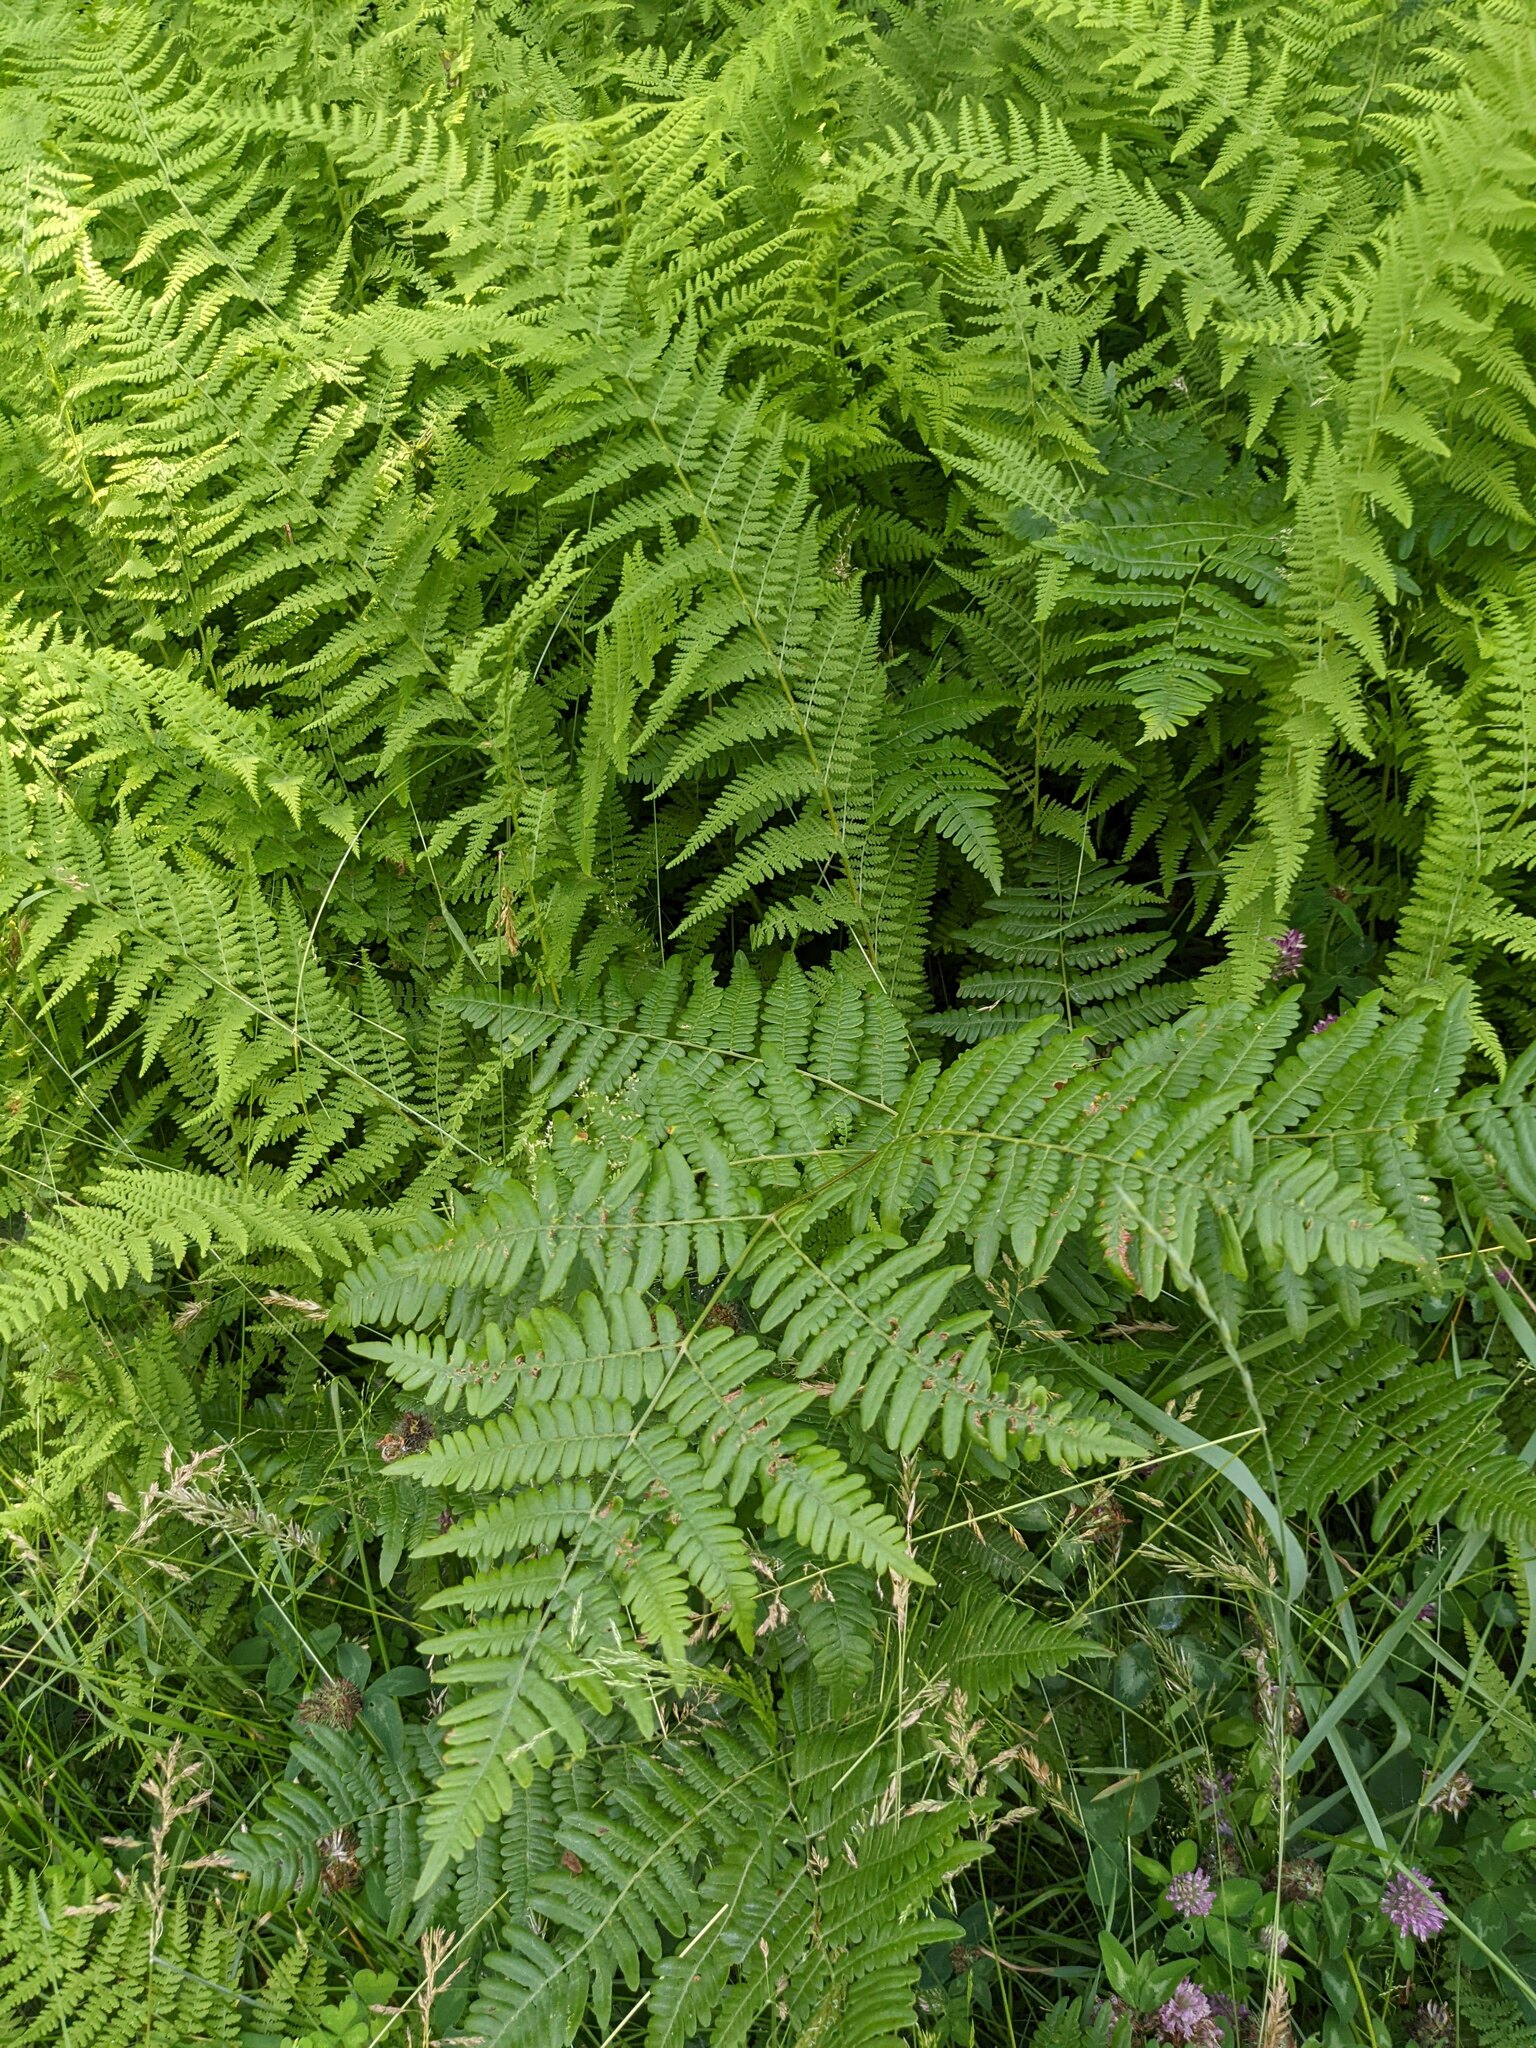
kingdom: Plantae
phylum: Tracheophyta
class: Polypodiopsida
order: Polypodiales
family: Dennstaedtiaceae
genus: Pteridium
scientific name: Pteridium aquilinum
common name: Bracken
